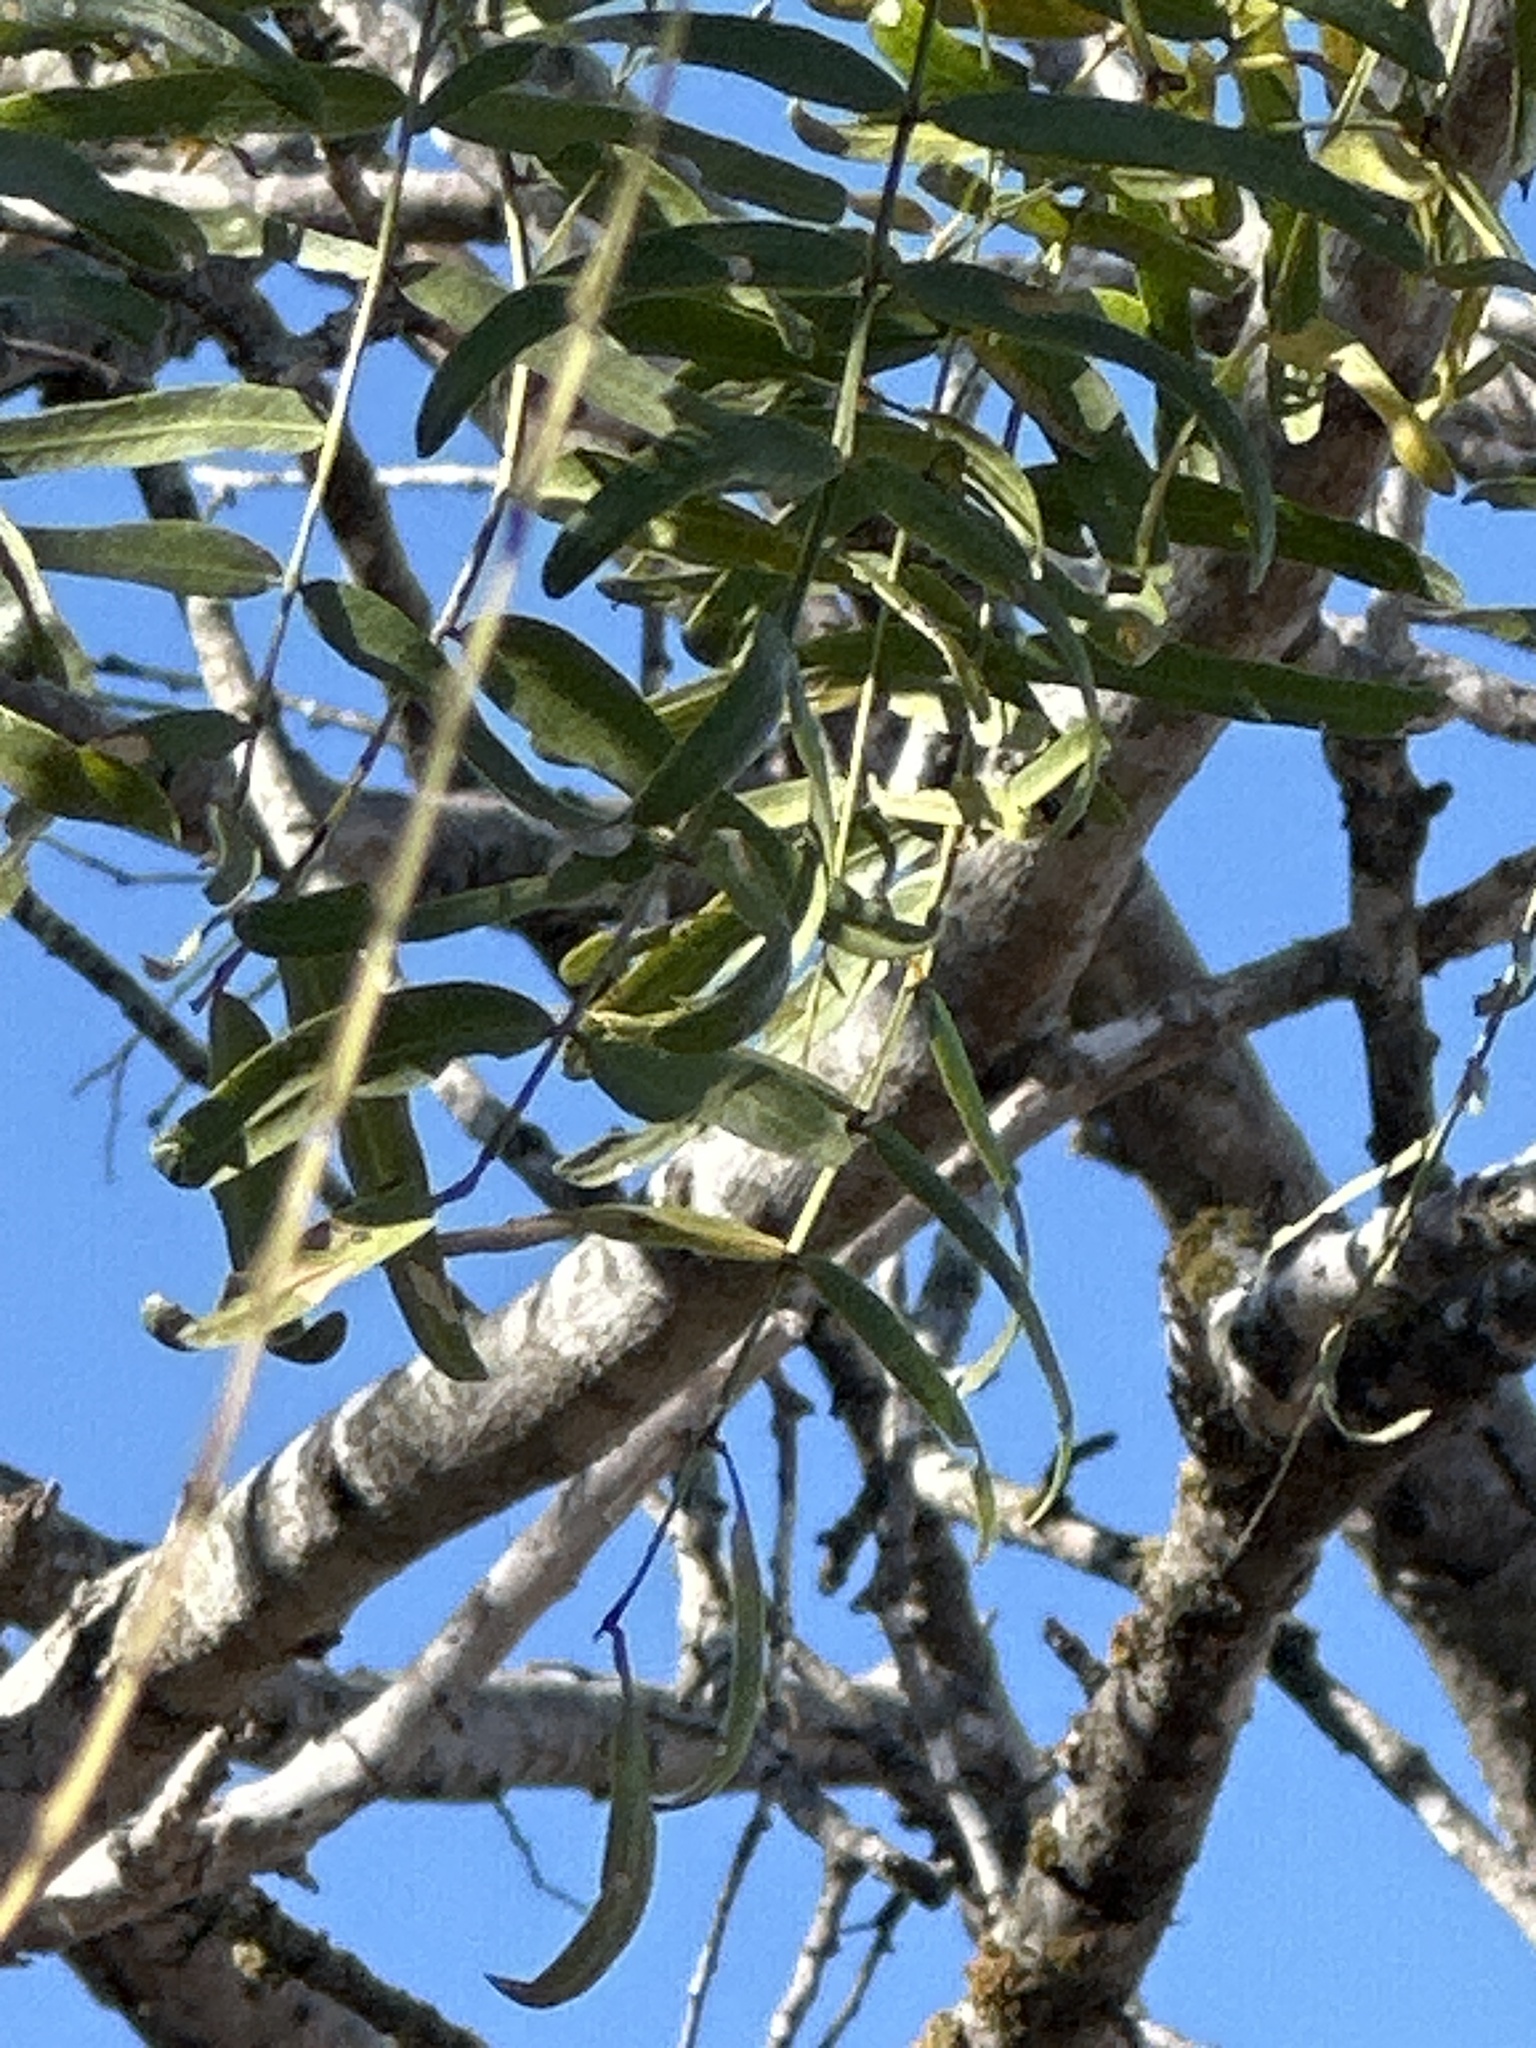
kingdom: Plantae
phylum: Tracheophyta
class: Magnoliopsida
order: Fabales
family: Fabaceae
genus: Prosopis
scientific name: Prosopis glandulosa
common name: Honey mesquite
